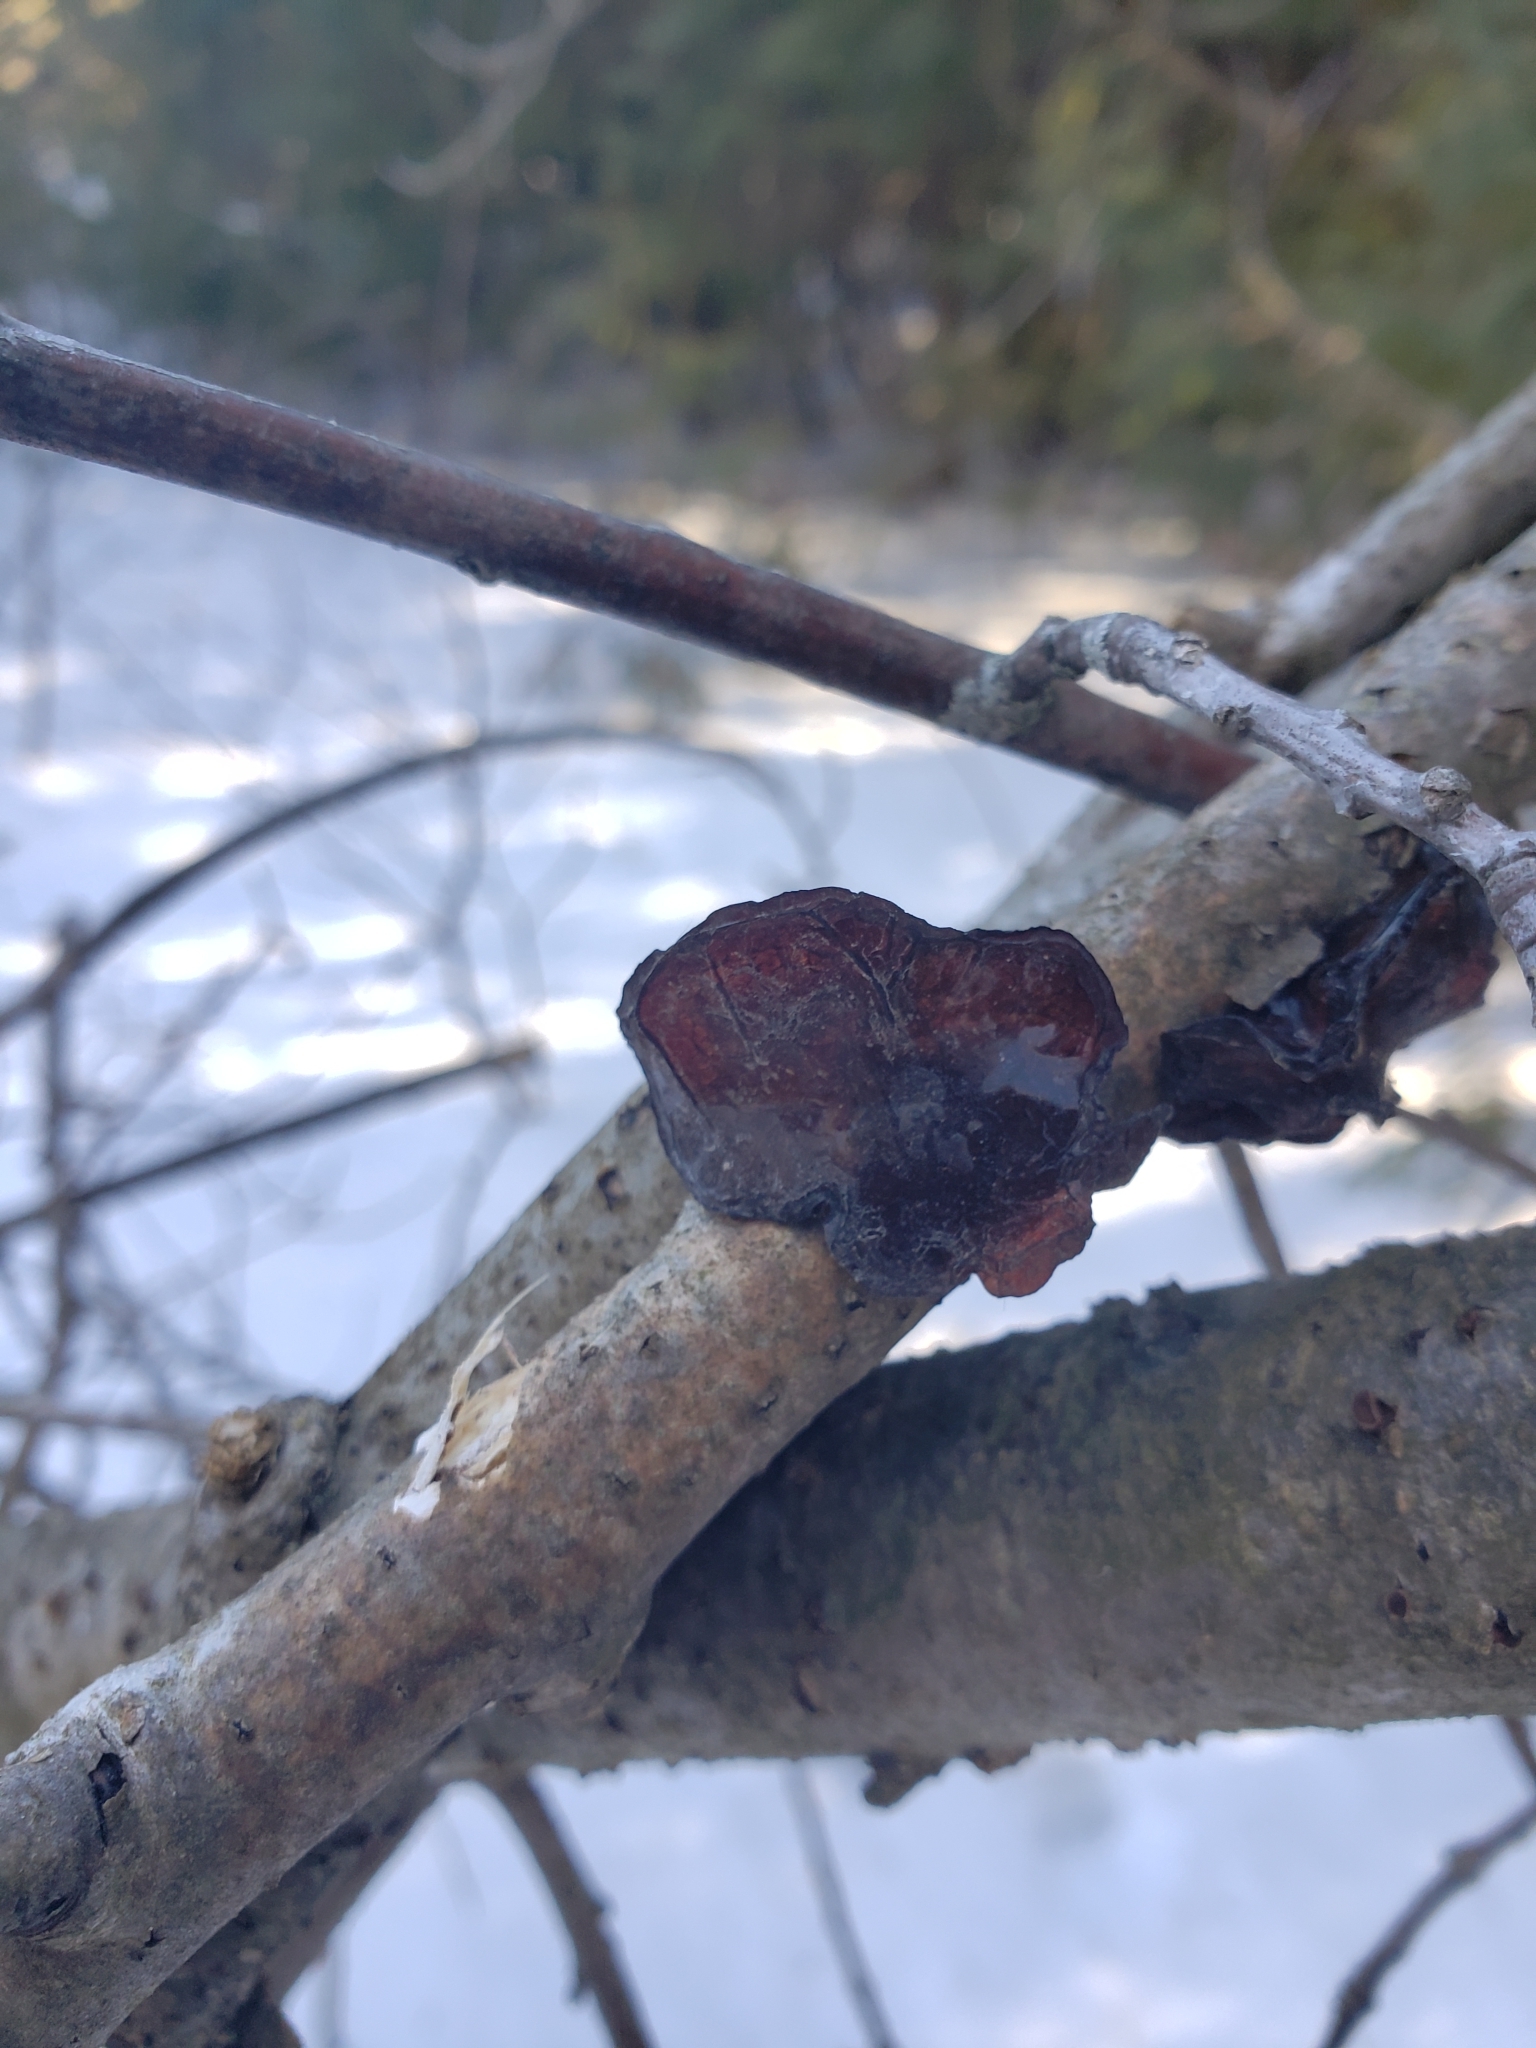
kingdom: Fungi
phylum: Basidiomycota
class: Agaricomycetes
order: Auriculariales
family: Auriculariaceae
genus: Exidia
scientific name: Exidia
